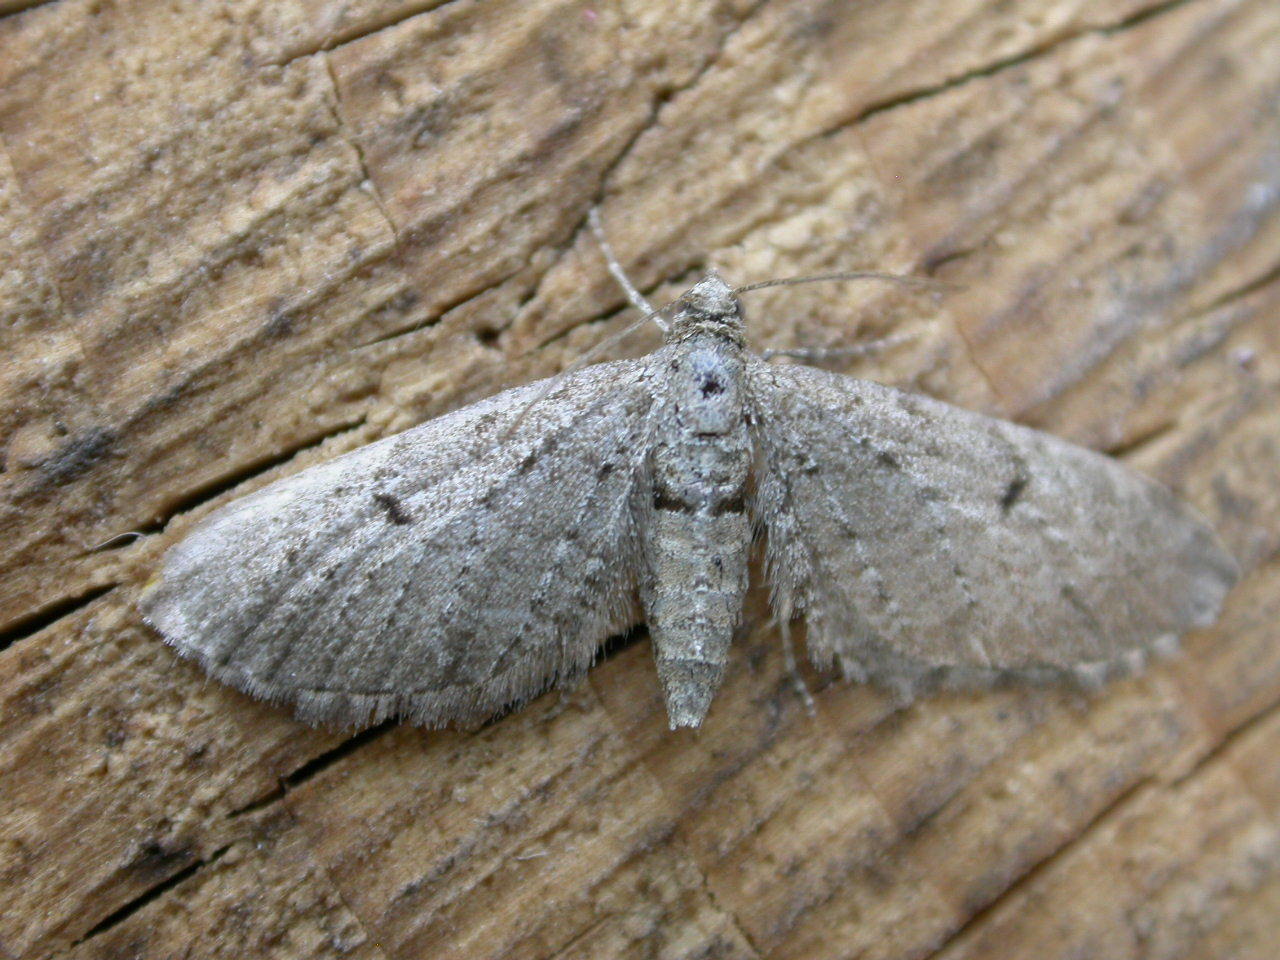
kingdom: Animalia
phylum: Arthropoda
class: Insecta
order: Lepidoptera
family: Geometridae
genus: Eupithecia
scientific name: Eupithecia intricata
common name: Freyers pug
